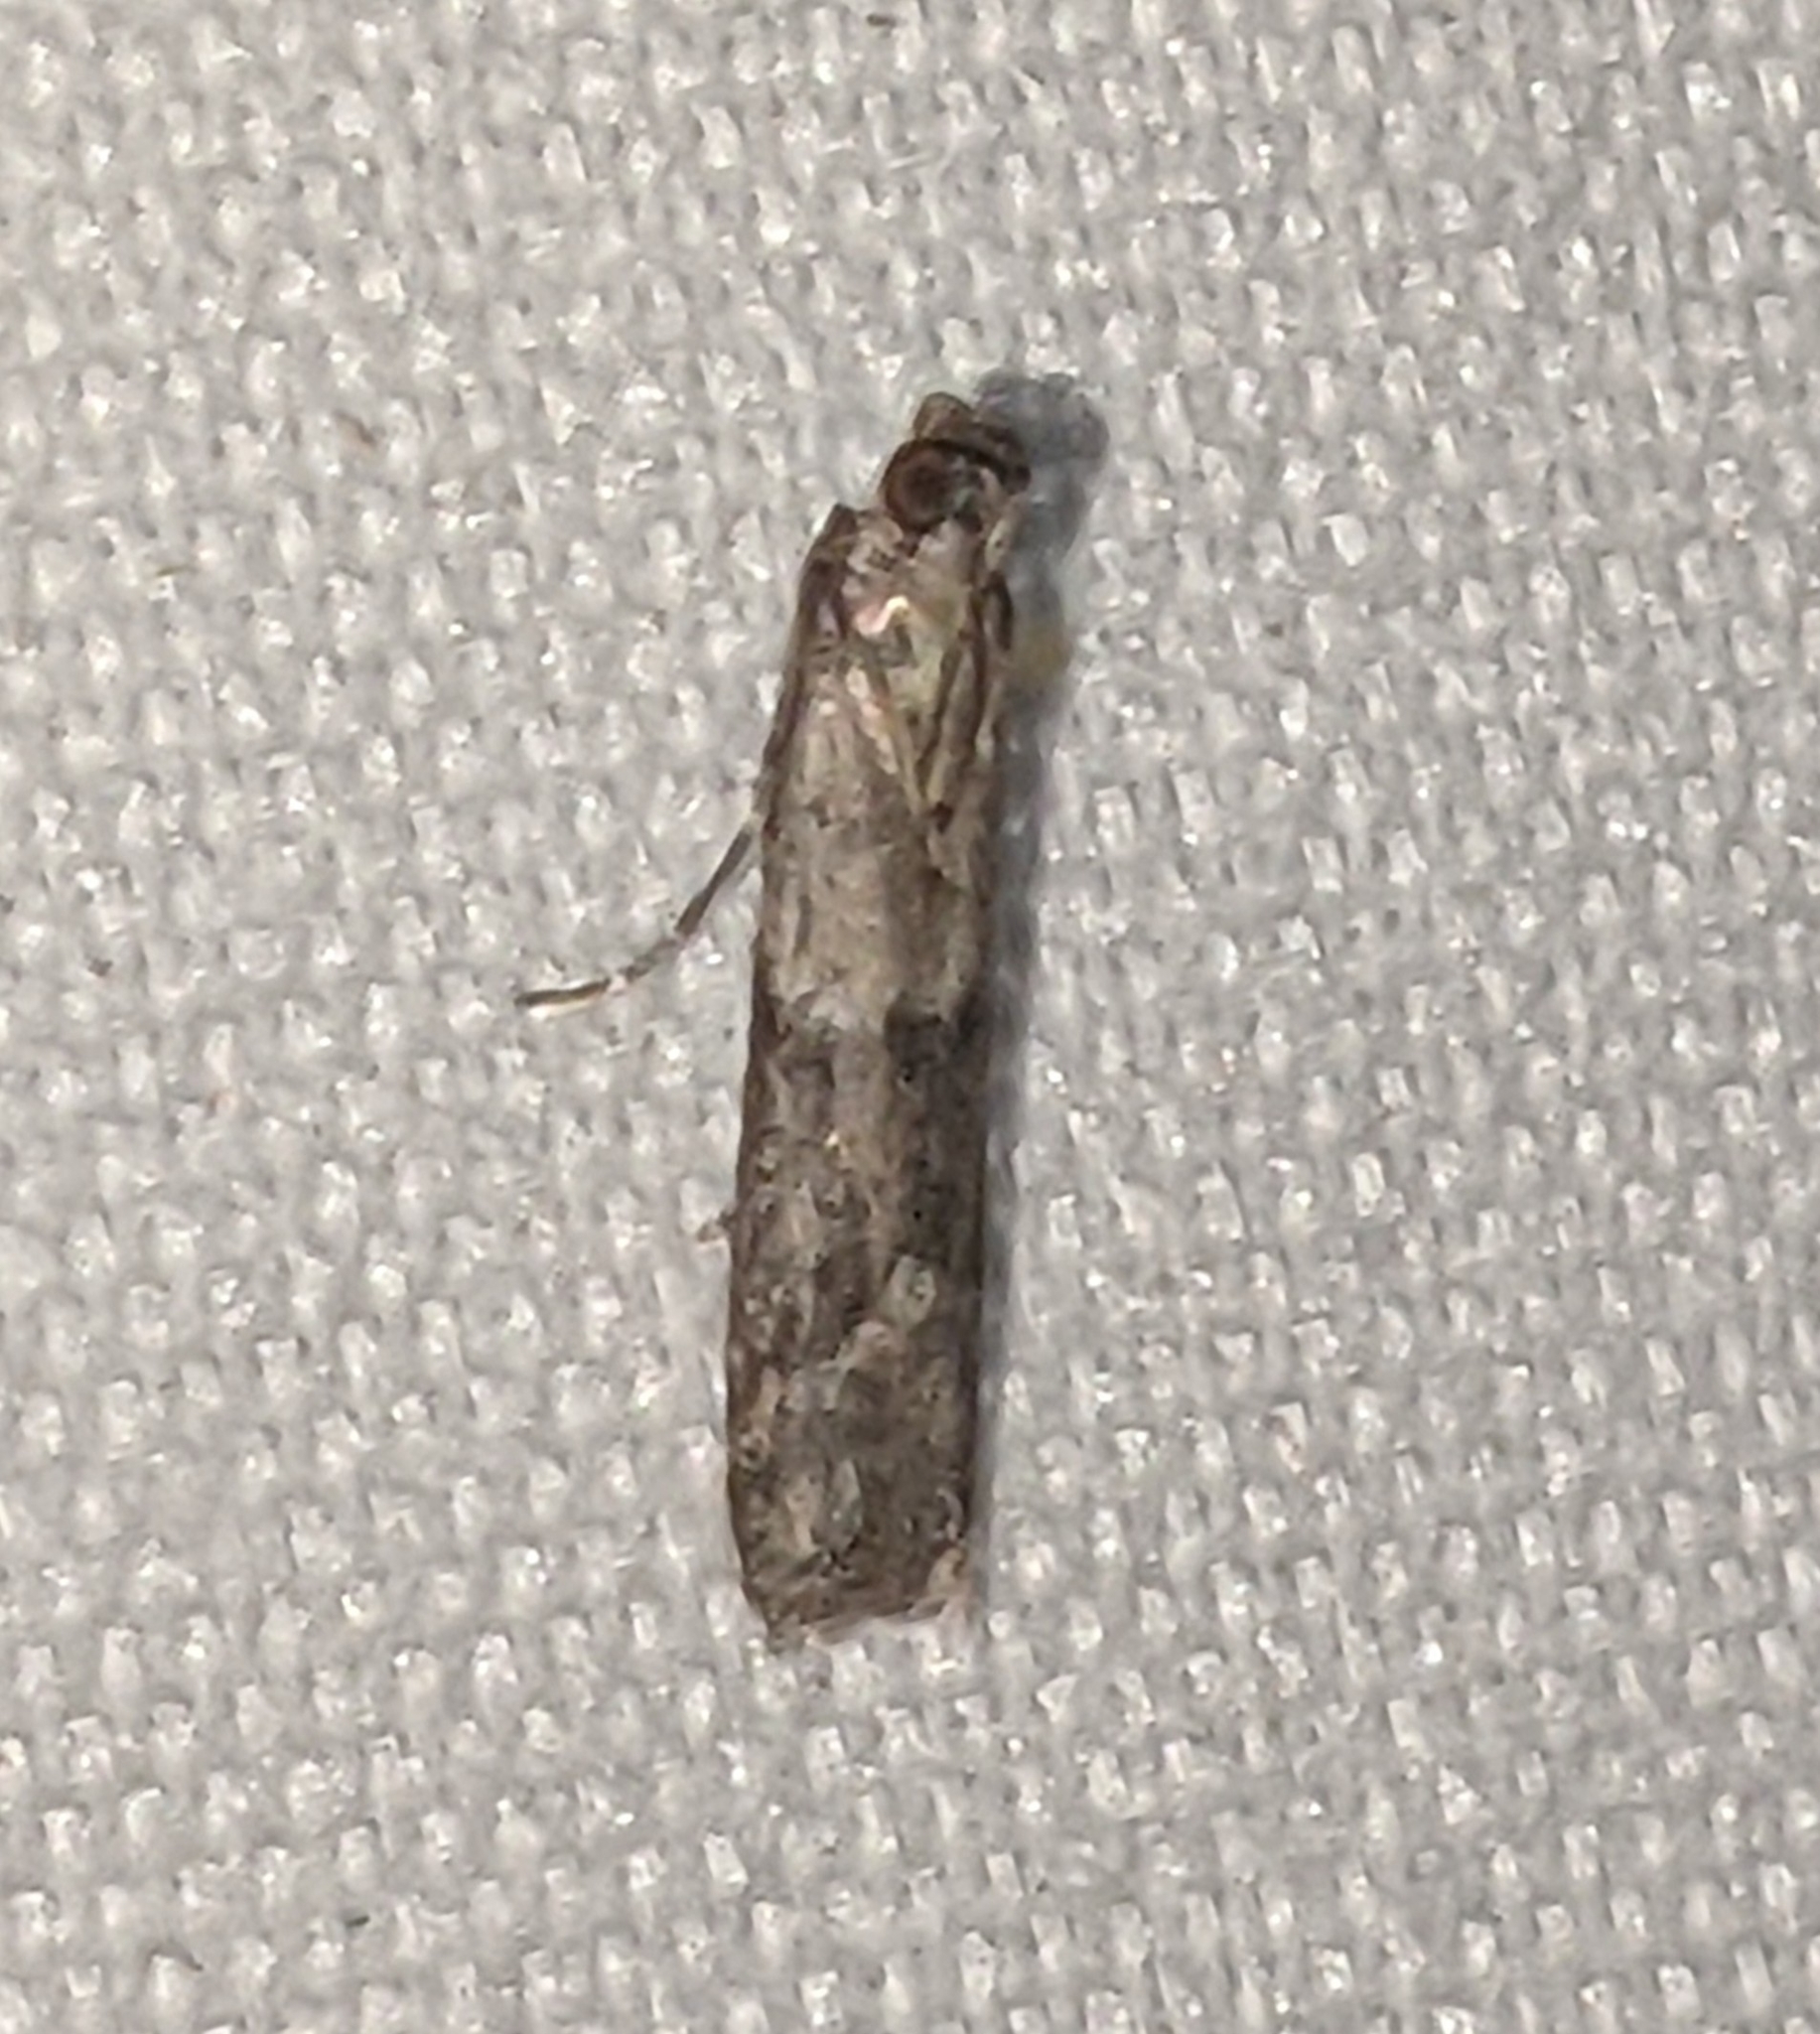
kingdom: Animalia
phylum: Arthropoda
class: Insecta
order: Lepidoptera
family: Pyralidae
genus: Ephestiodes
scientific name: Ephestiodes gilvescentella
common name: Moth
